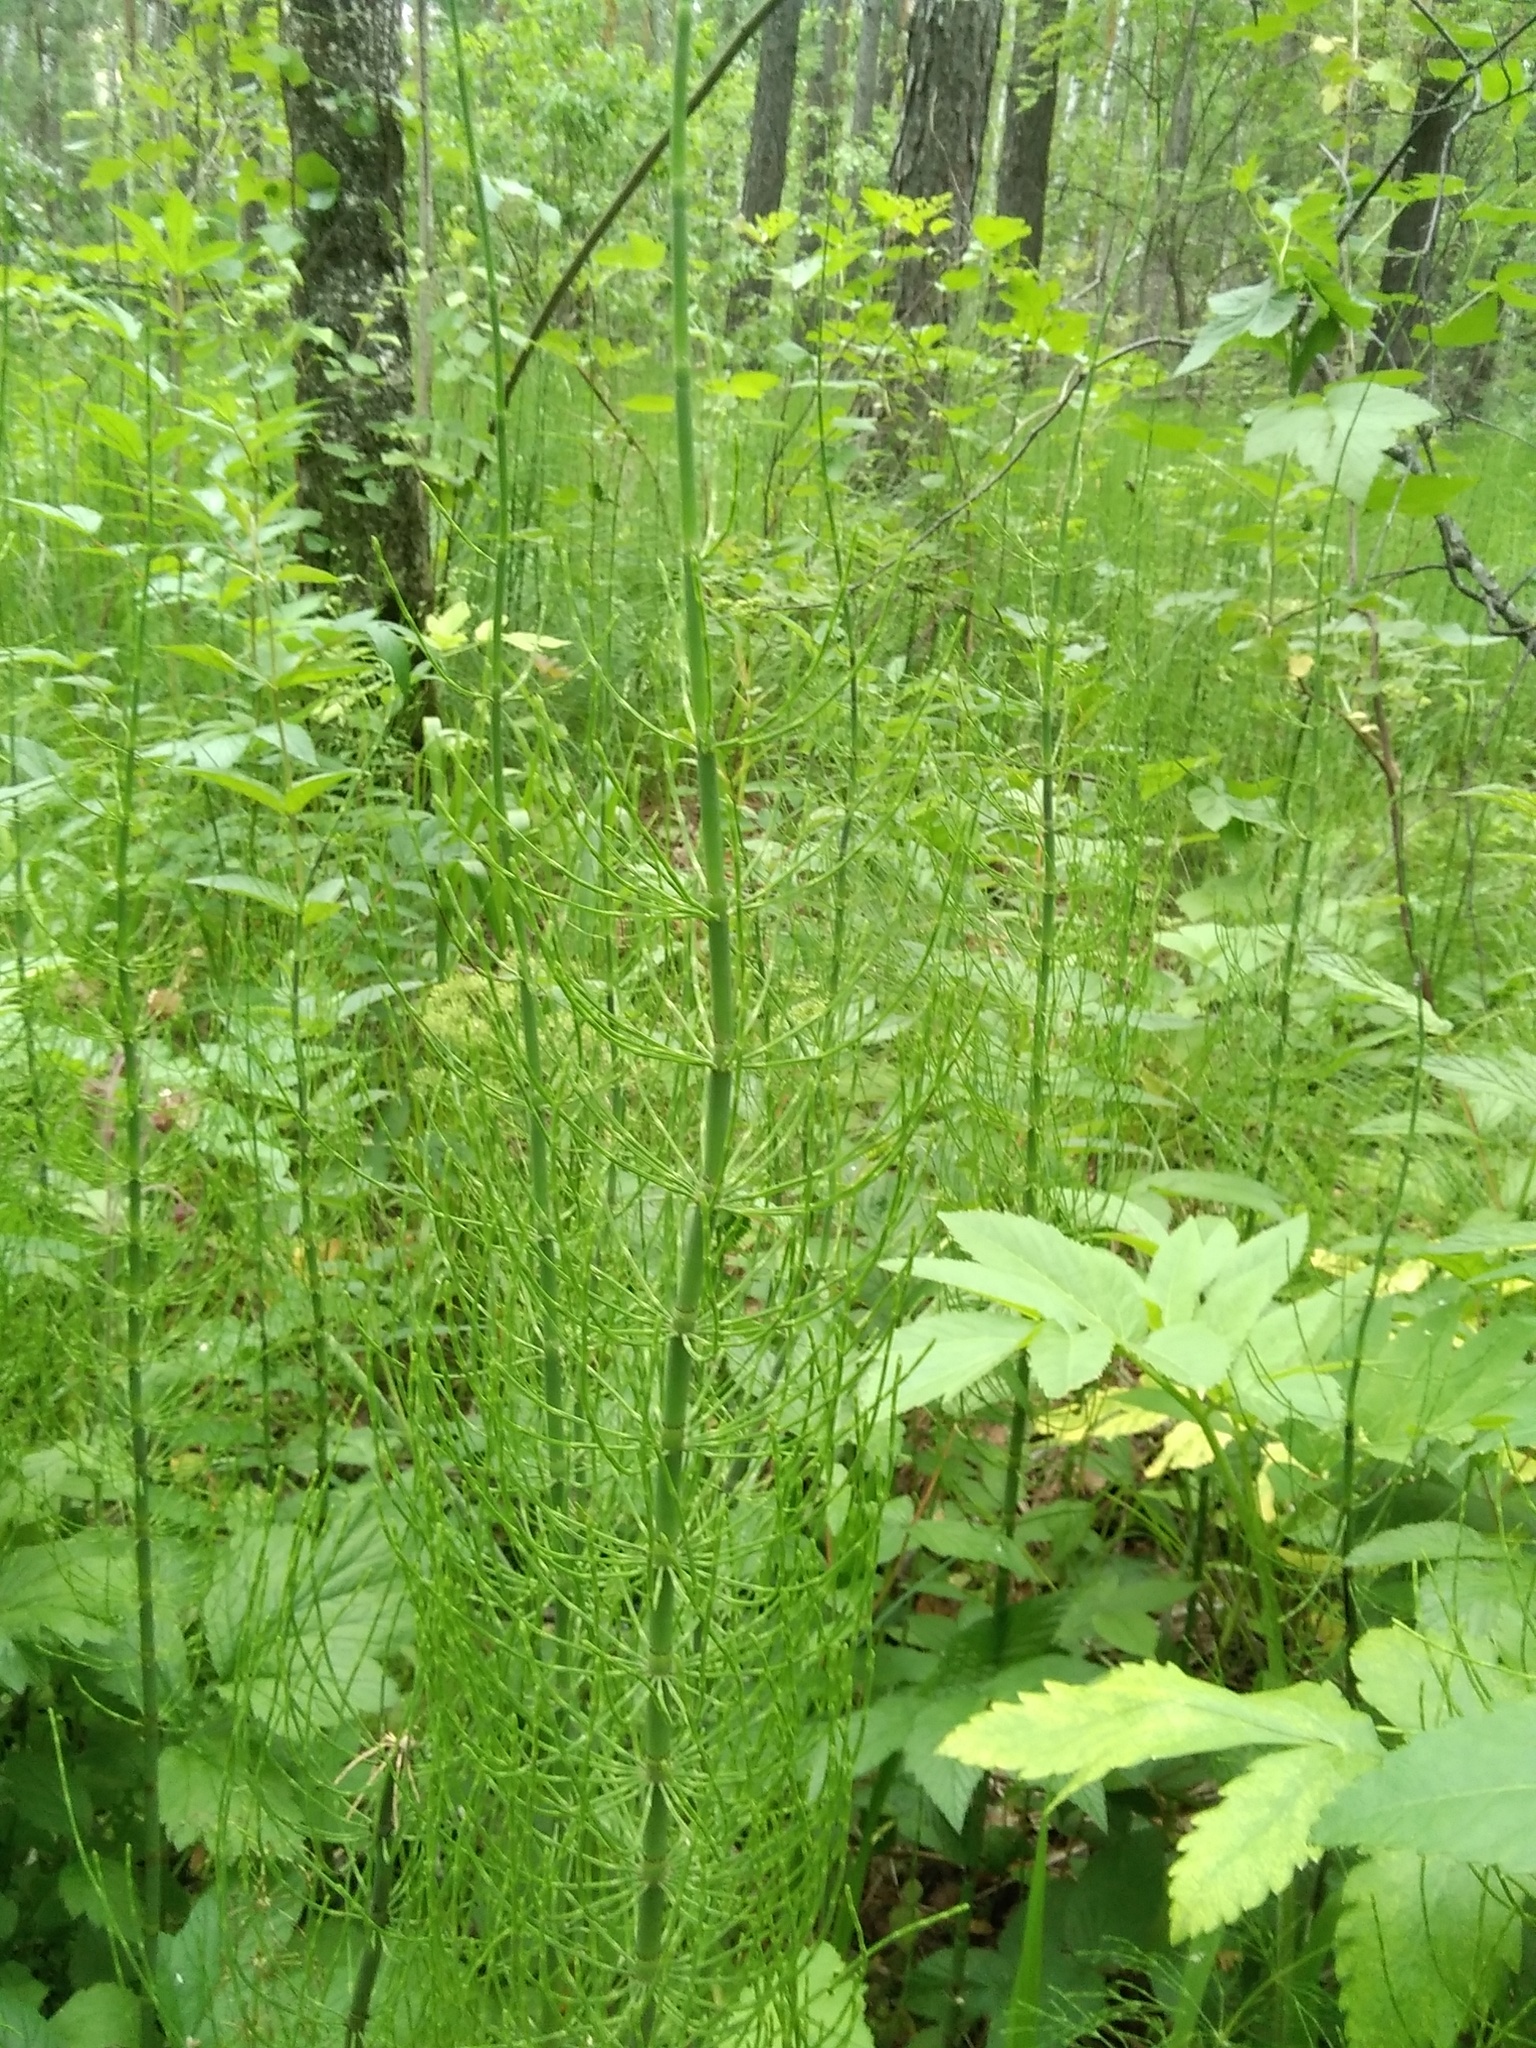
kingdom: Plantae
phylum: Tracheophyta
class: Polypodiopsida
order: Equisetales
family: Equisetaceae
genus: Equisetum
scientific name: Equisetum fluviatile
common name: Water horsetail
